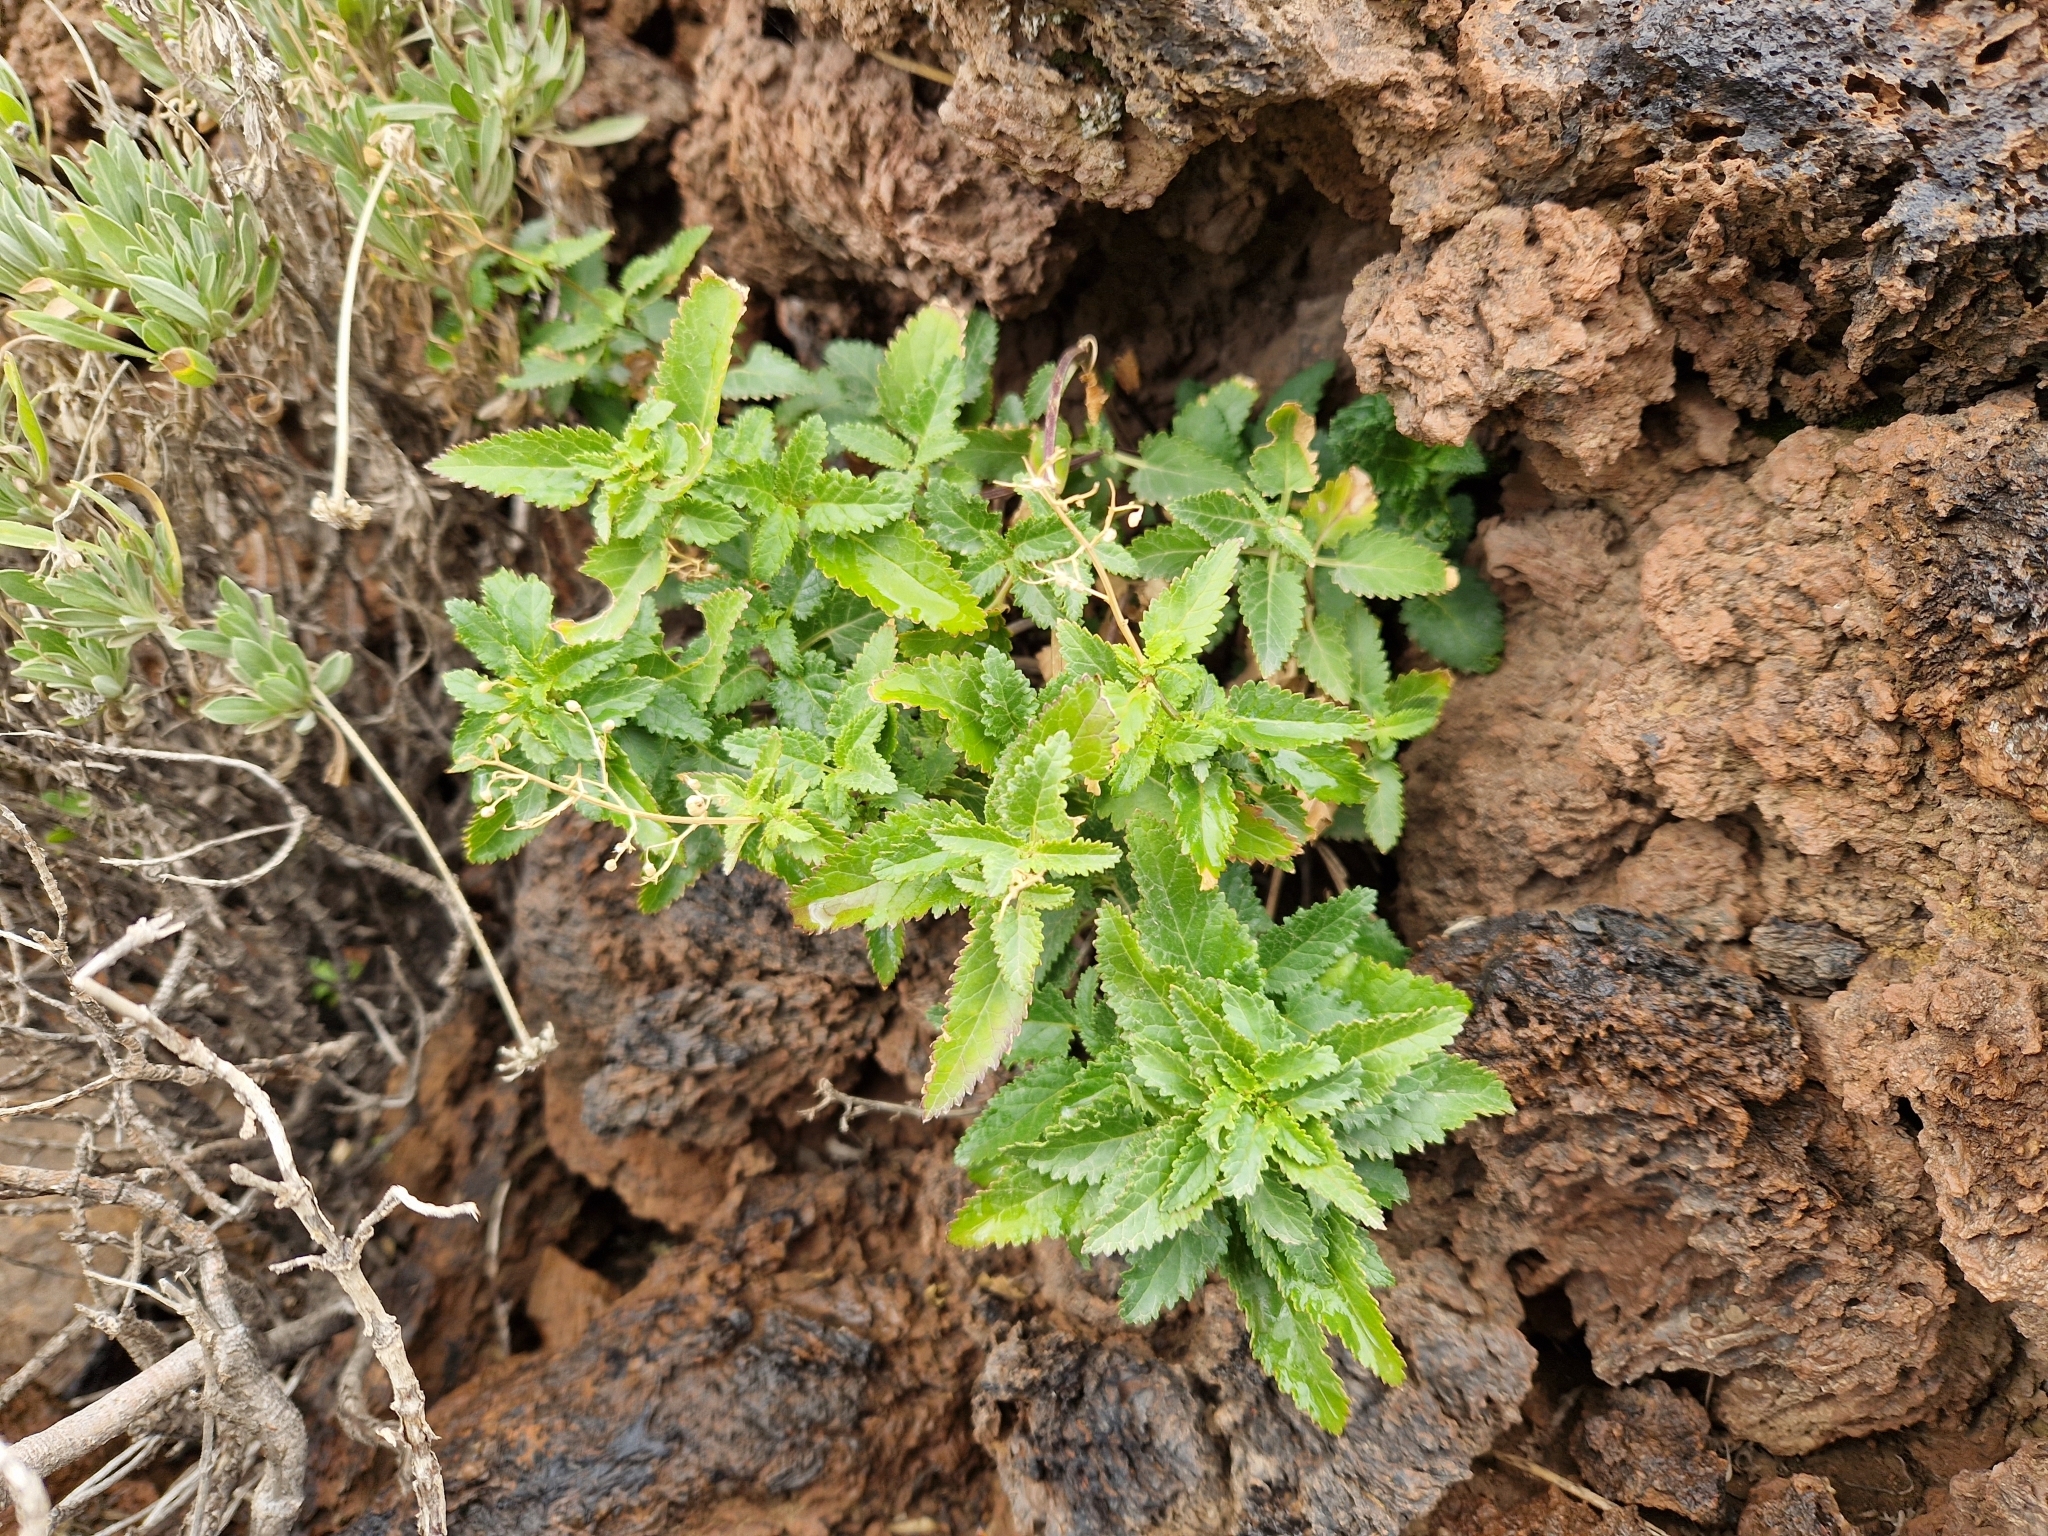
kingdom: Plantae
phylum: Tracheophyta
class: Magnoliopsida
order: Lamiales
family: Scrophulariaceae
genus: Scrophularia
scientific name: Scrophularia glabrata
